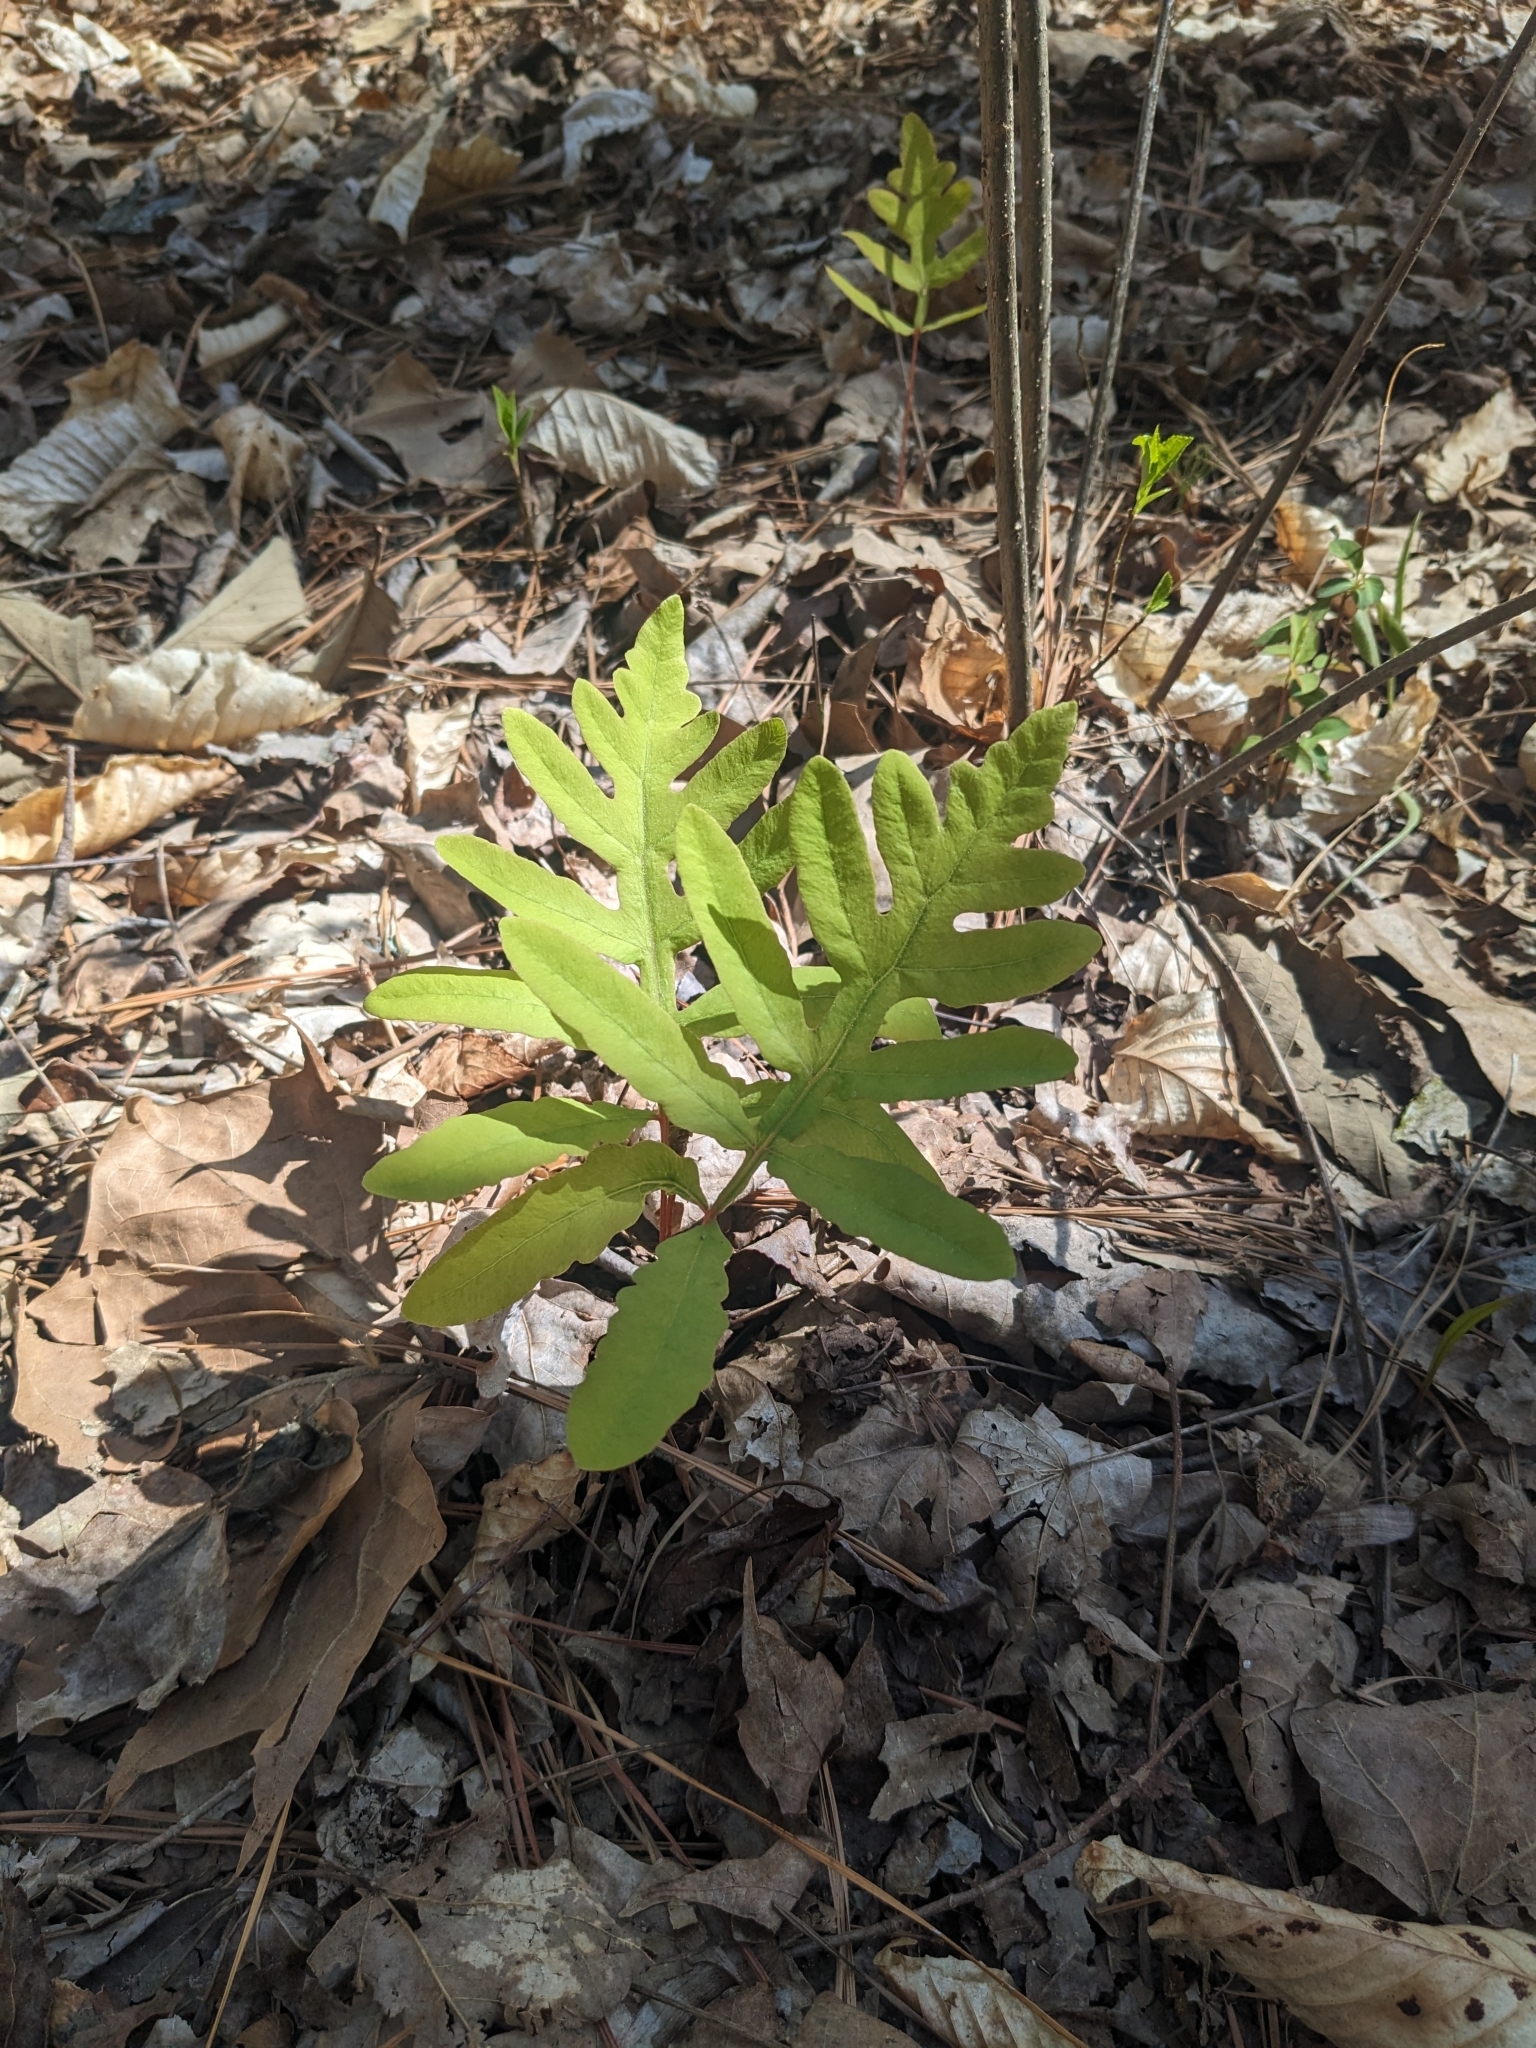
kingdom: Plantae
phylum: Tracheophyta
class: Polypodiopsida
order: Polypodiales
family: Onocleaceae
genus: Onoclea
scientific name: Onoclea sensibilis
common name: Sensitive fern
